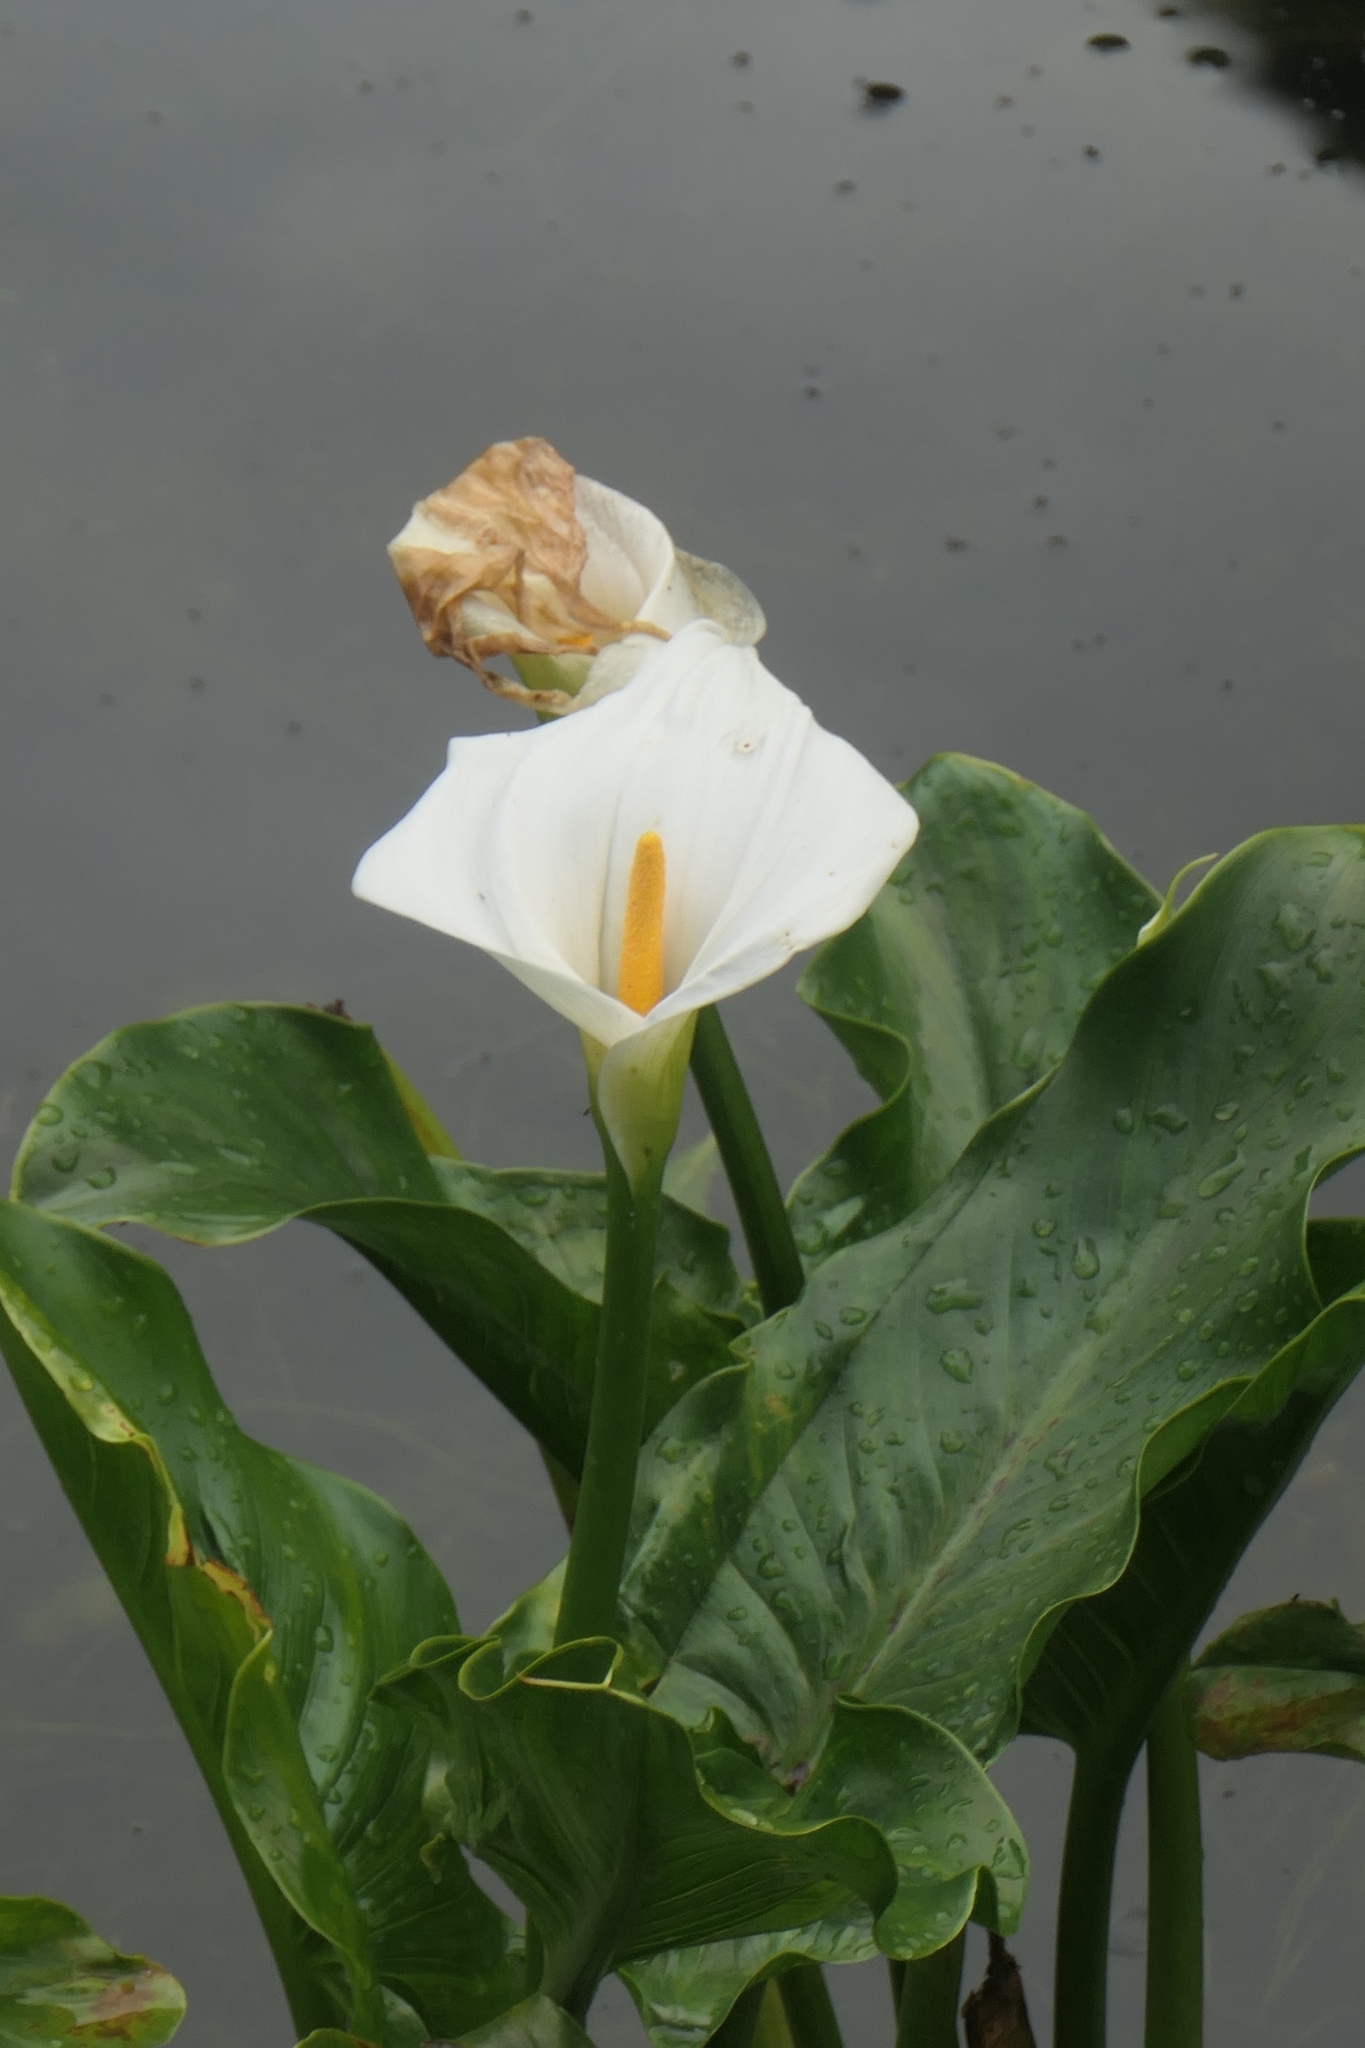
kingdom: Plantae
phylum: Tracheophyta
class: Liliopsida
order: Alismatales
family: Araceae
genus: Zantedeschia
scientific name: Zantedeschia aethiopica
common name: Altar-lily
